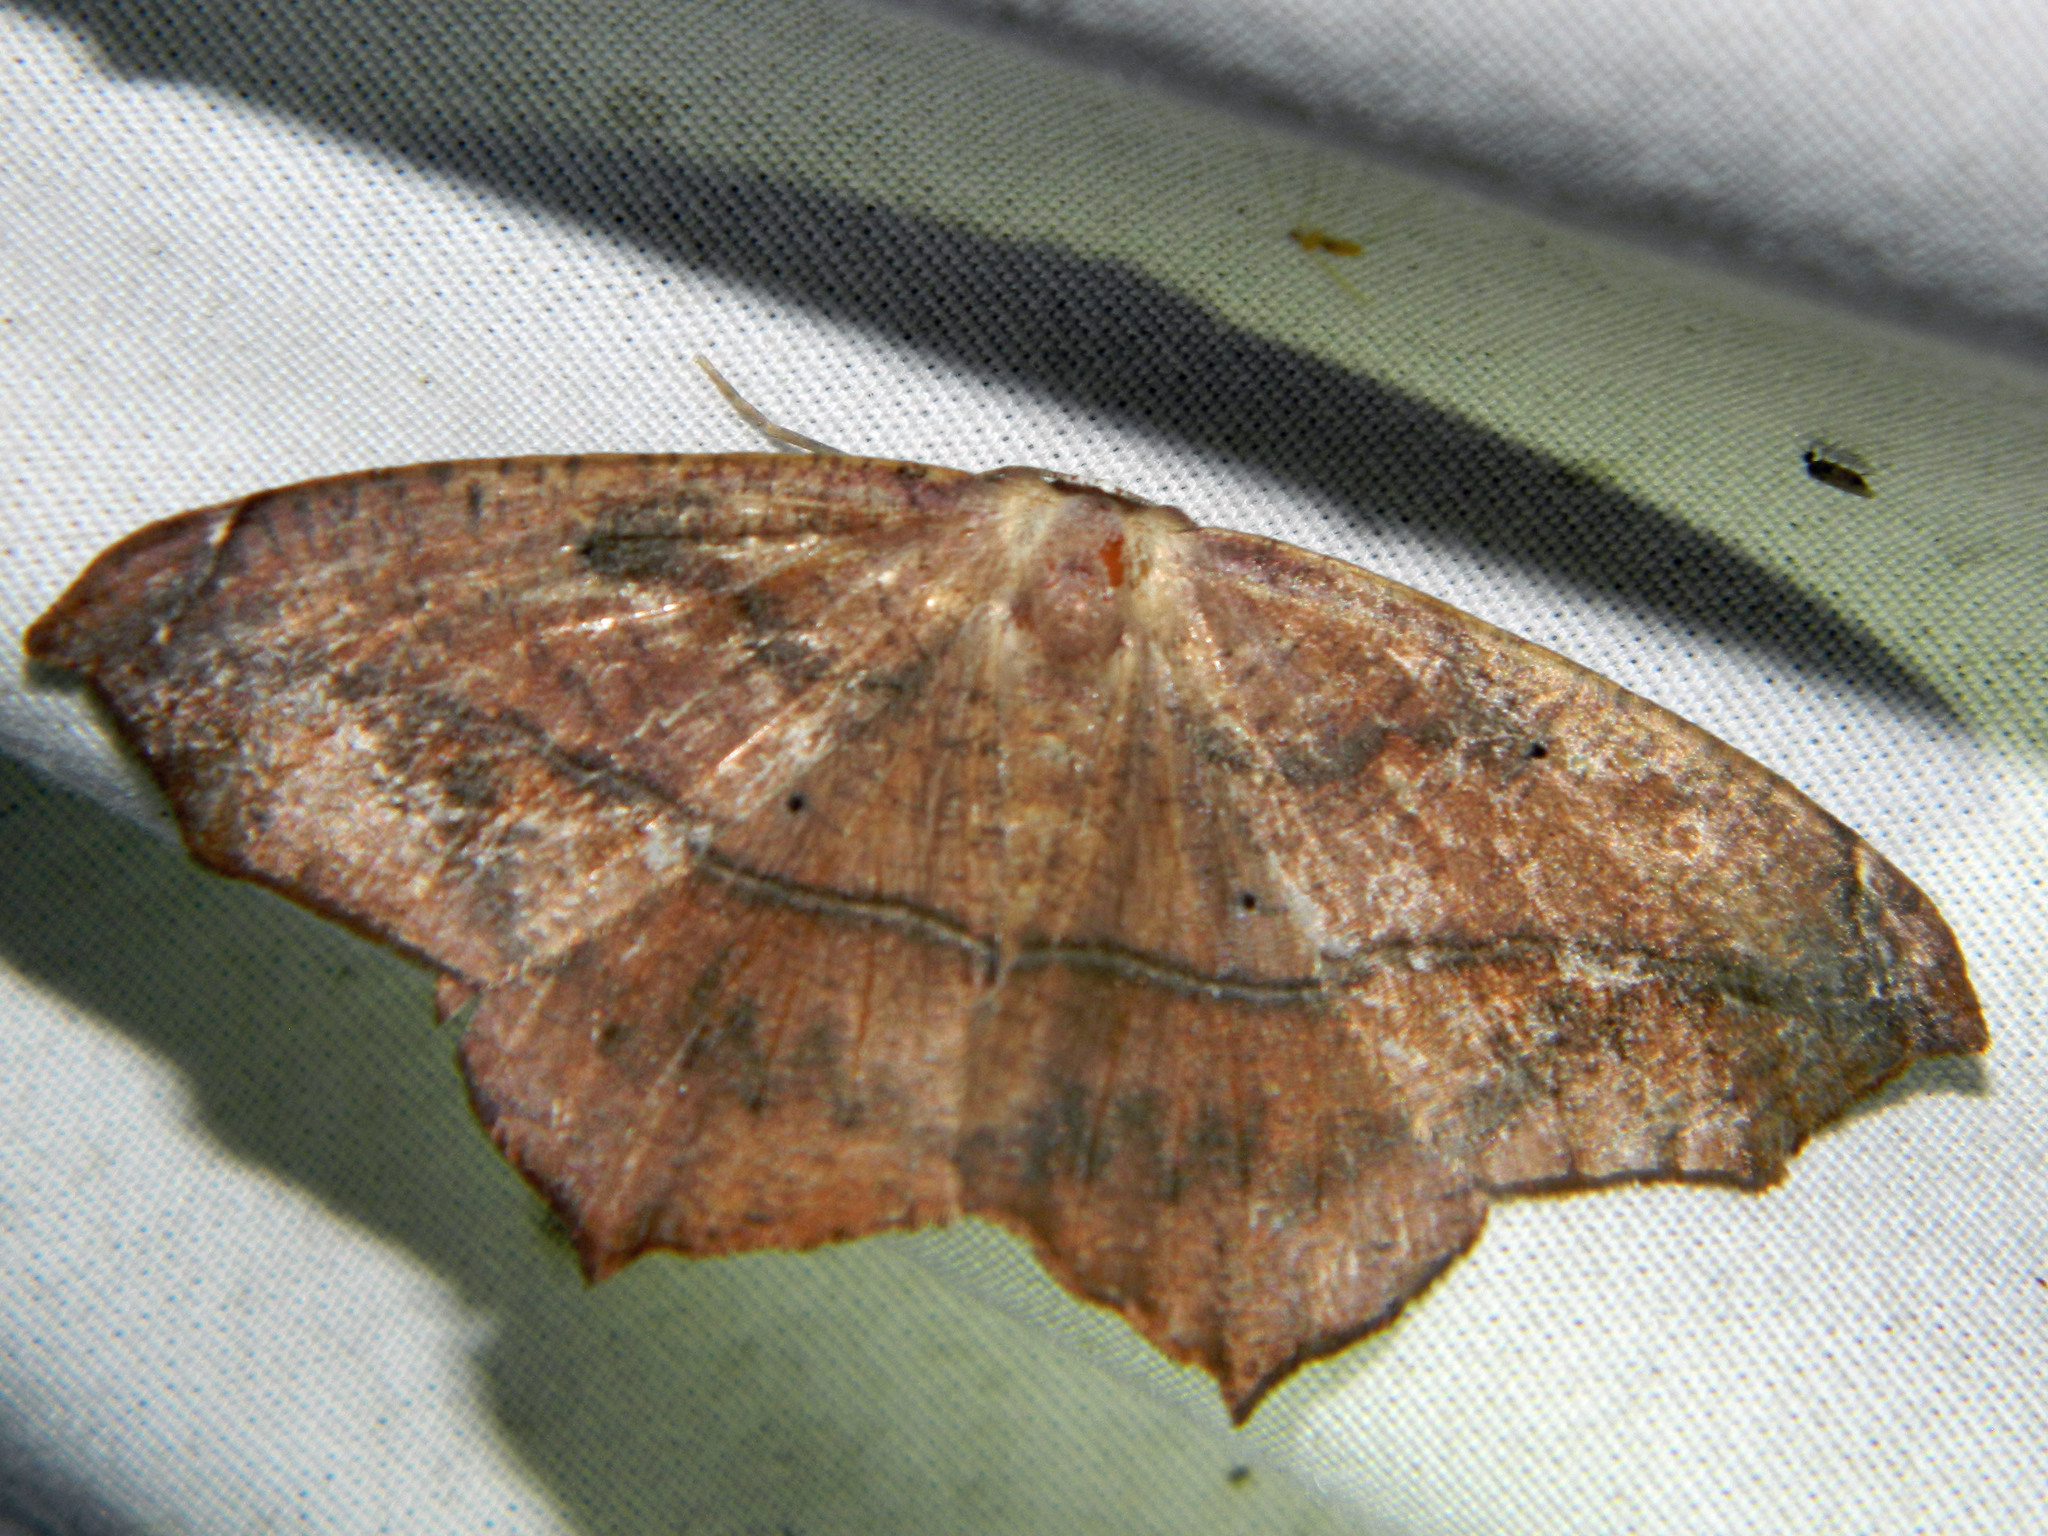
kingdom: Animalia
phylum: Arthropoda
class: Insecta
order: Lepidoptera
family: Geometridae
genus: Prochoerodes
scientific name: Prochoerodes lineola
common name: Large maple spanworm
